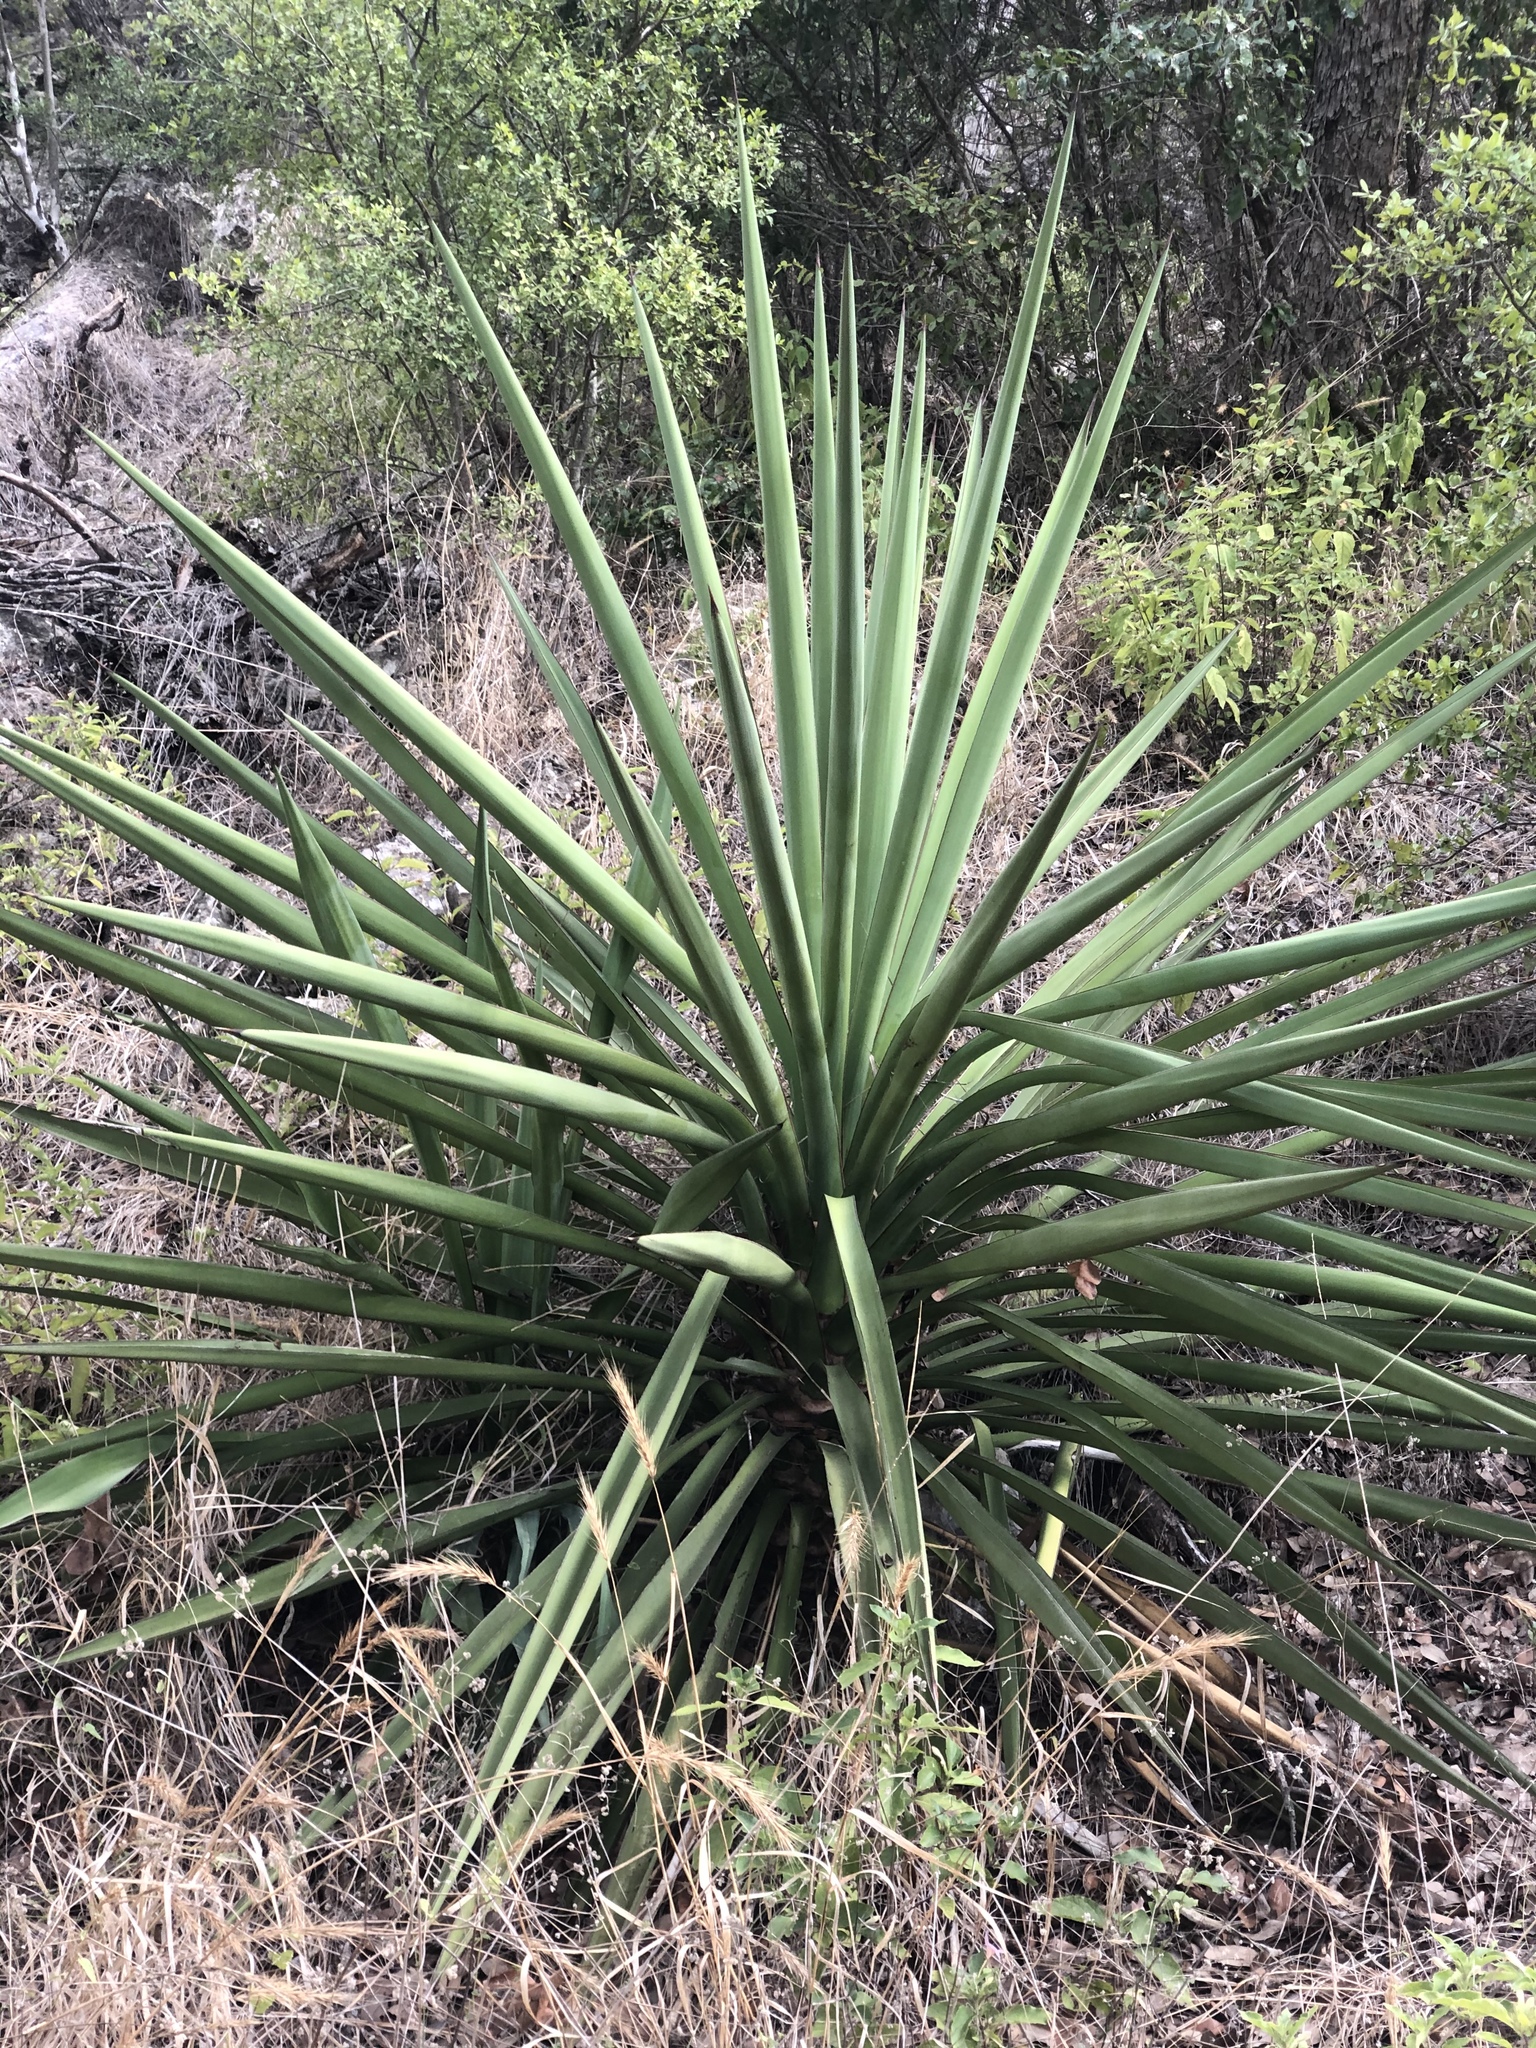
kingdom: Plantae
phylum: Tracheophyta
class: Liliopsida
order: Asparagales
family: Asparagaceae
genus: Yucca
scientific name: Yucca treculiana
